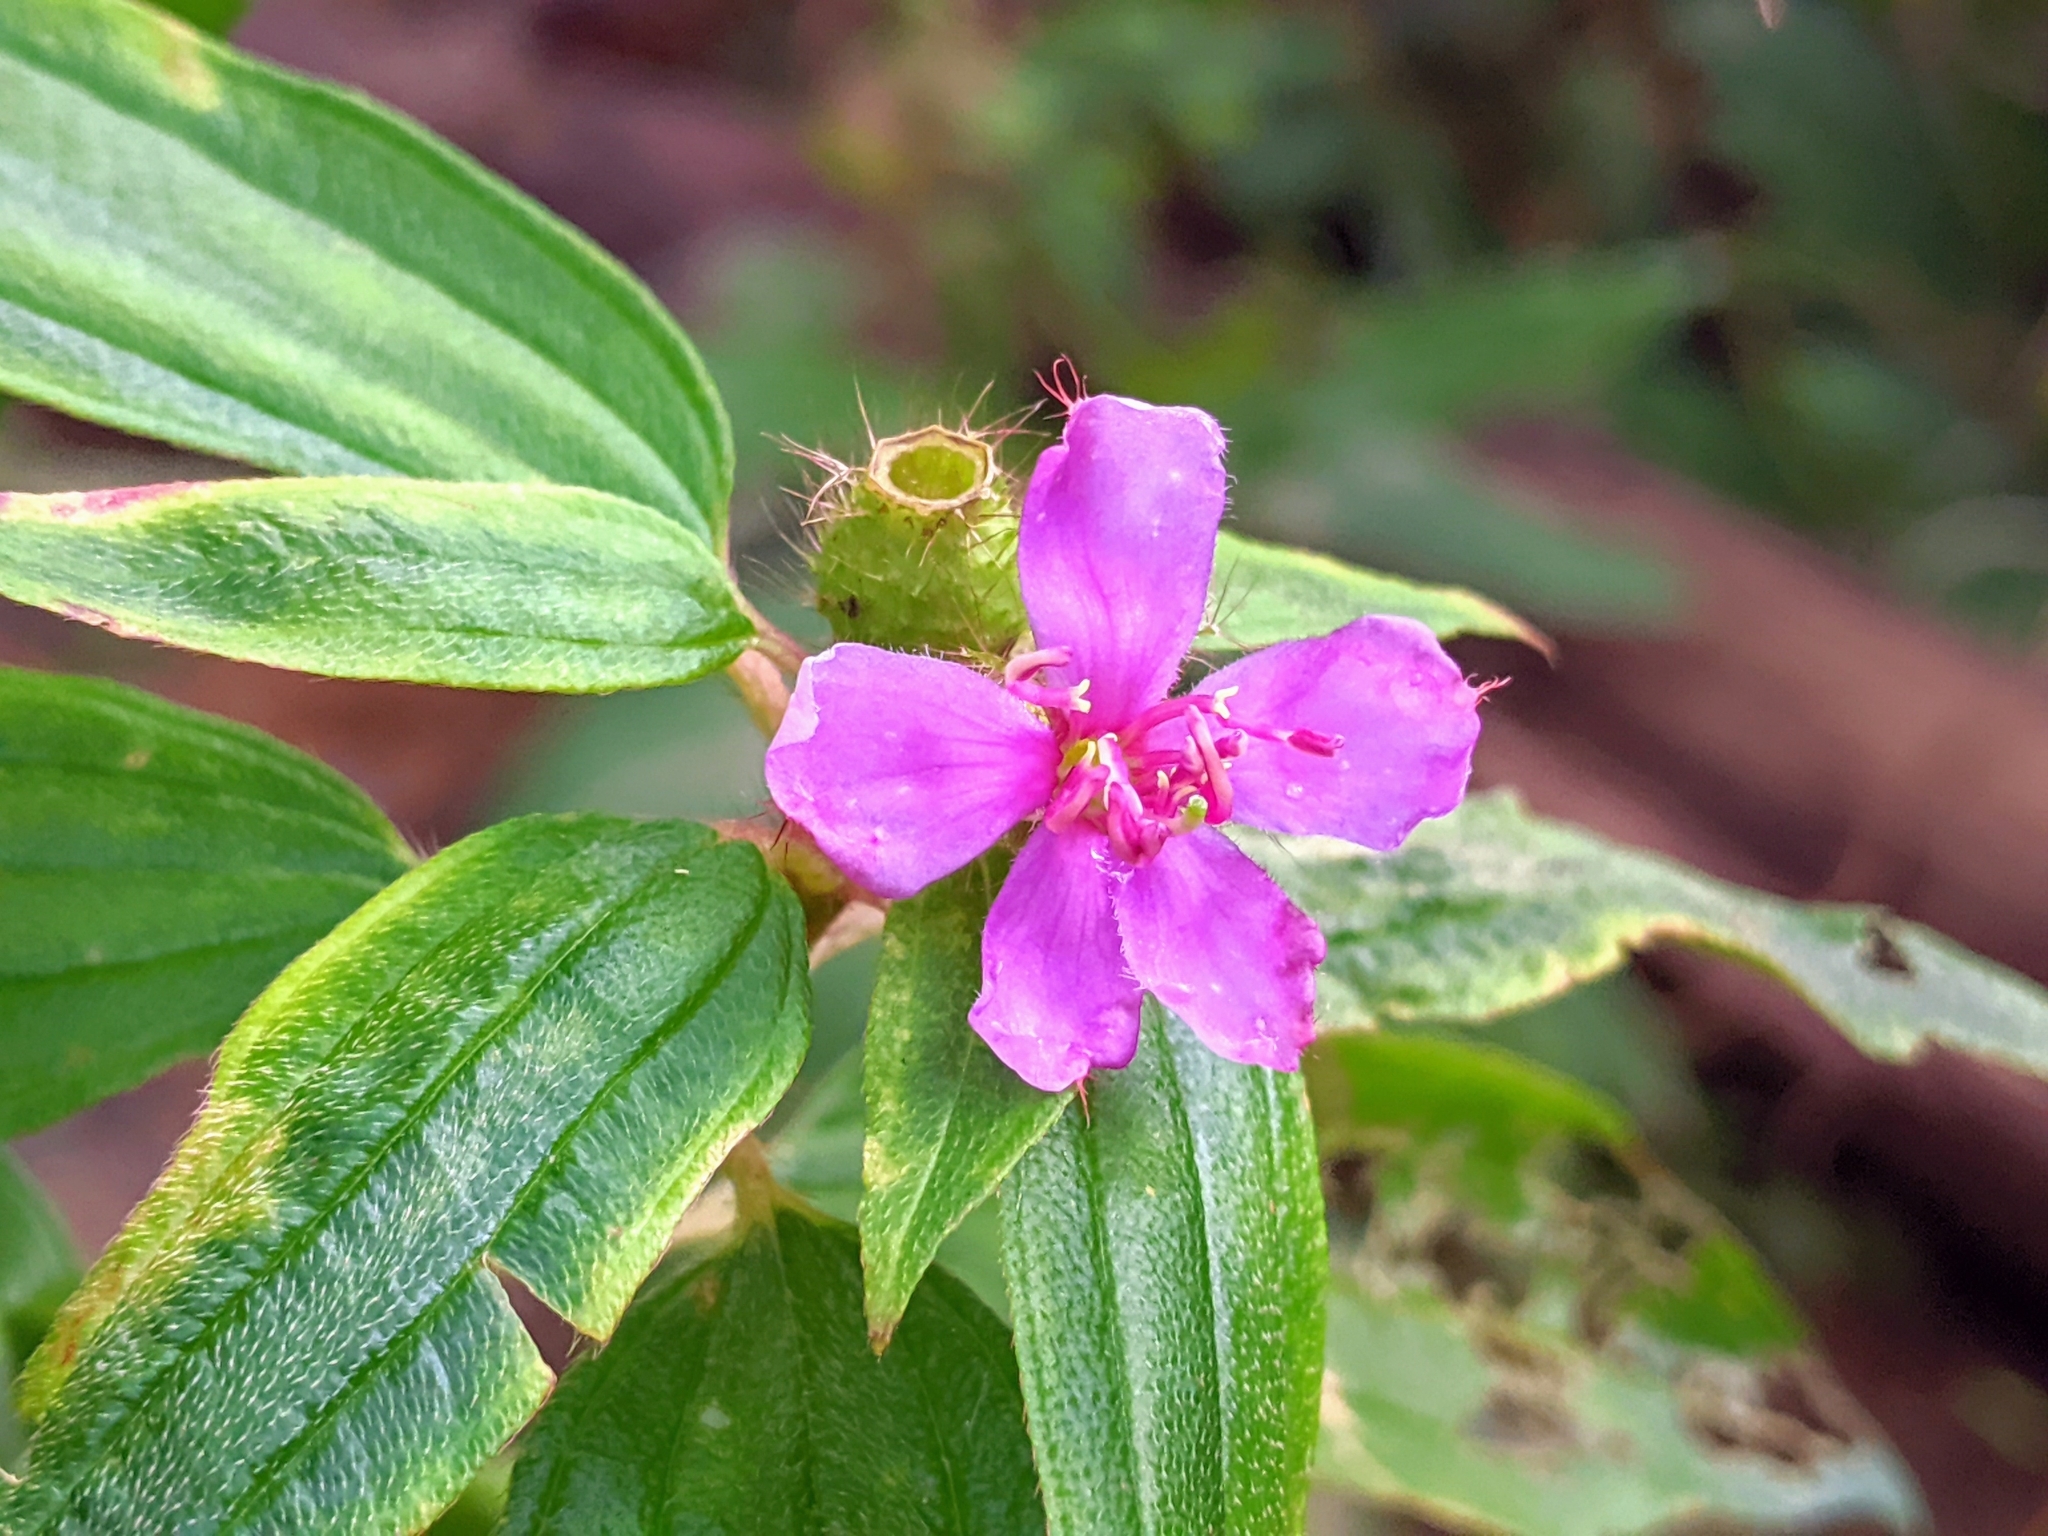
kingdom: Plantae
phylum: Tracheophyta
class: Magnoliopsida
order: Myrtales
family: Melastomataceae
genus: Melastoma
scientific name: Melastoma malabathricum
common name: Indian-rhododendron
